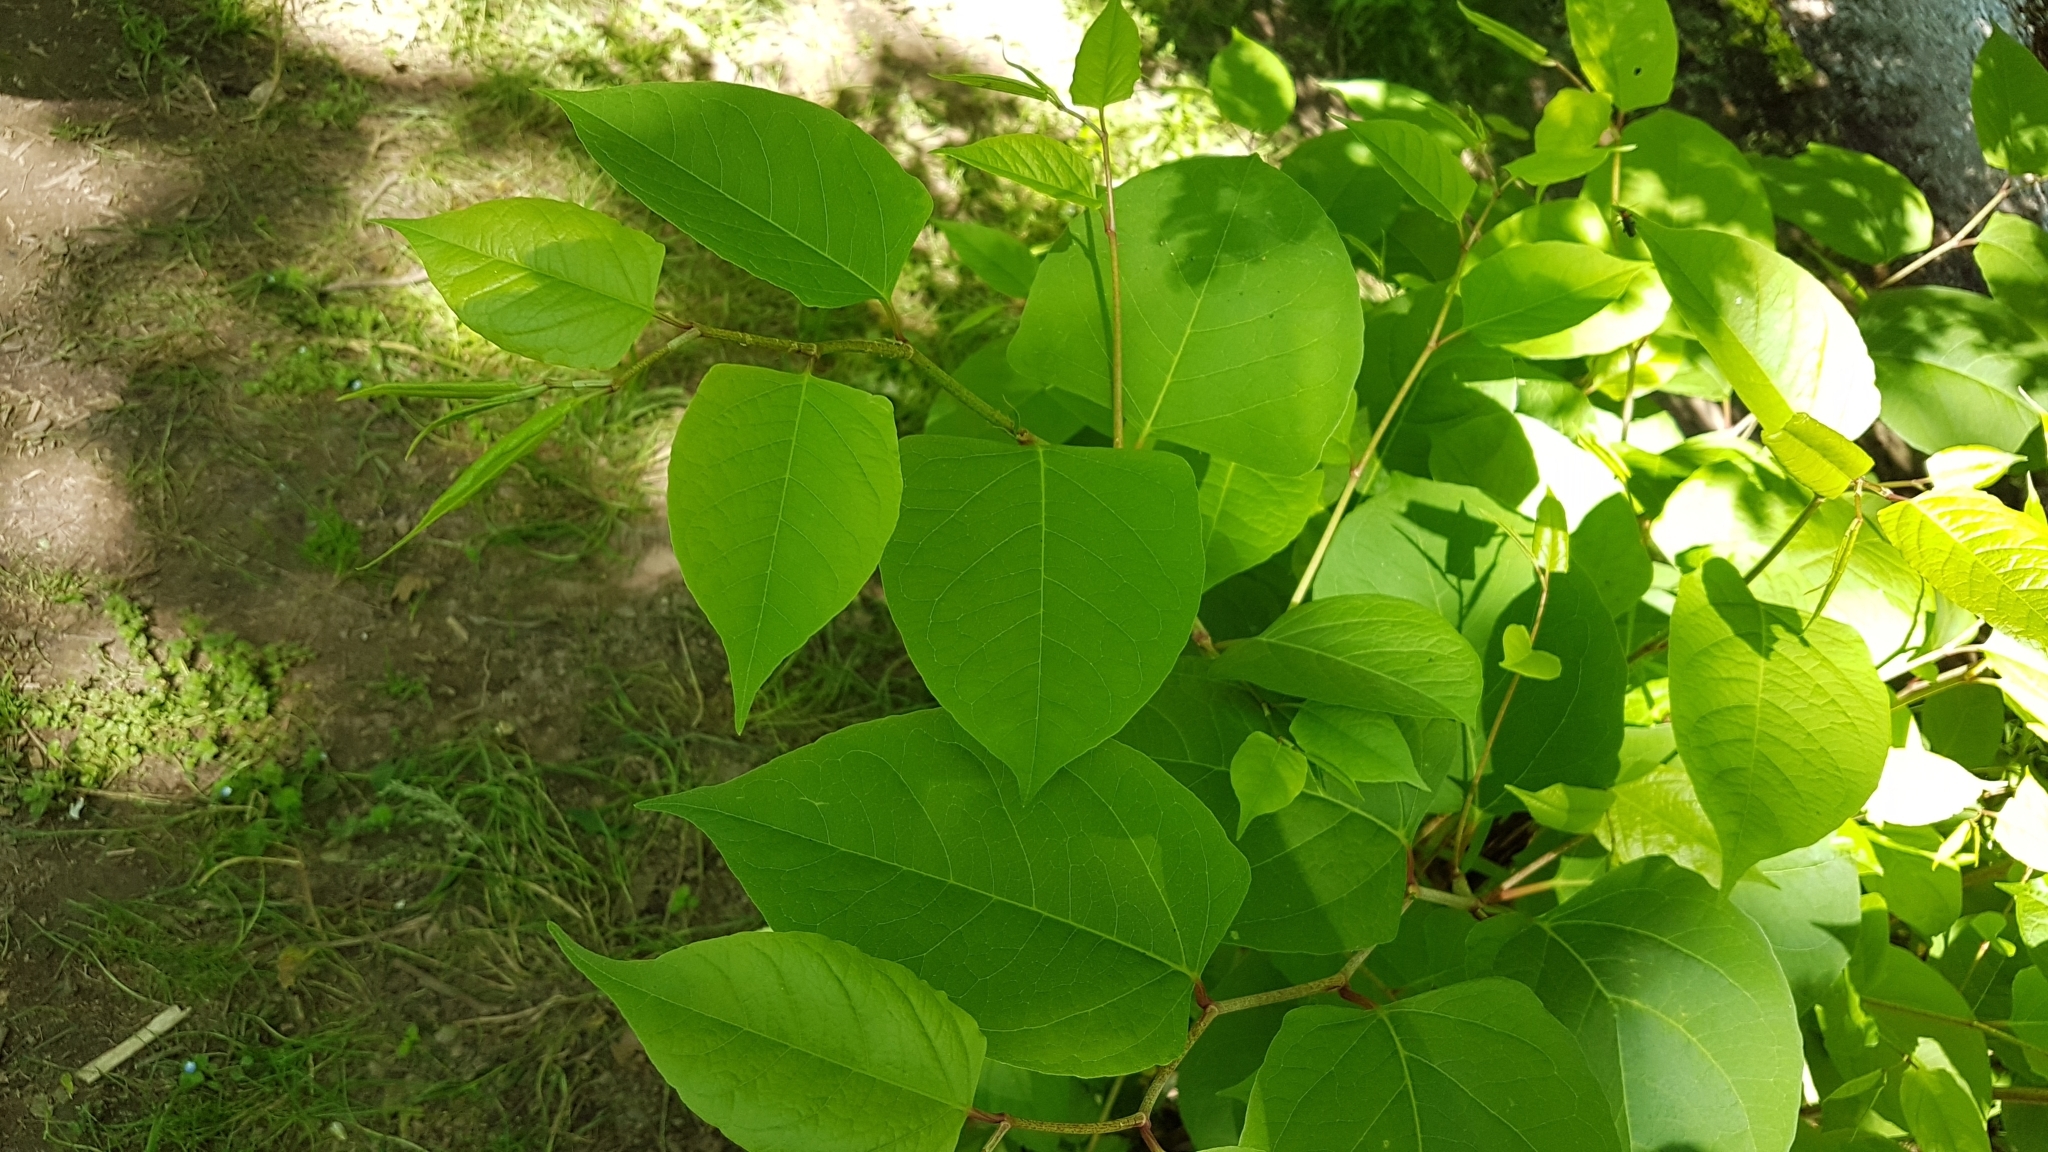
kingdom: Plantae
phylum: Tracheophyta
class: Magnoliopsida
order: Caryophyllales
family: Polygonaceae
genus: Reynoutria
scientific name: Reynoutria japonica
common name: Japanese knotweed
